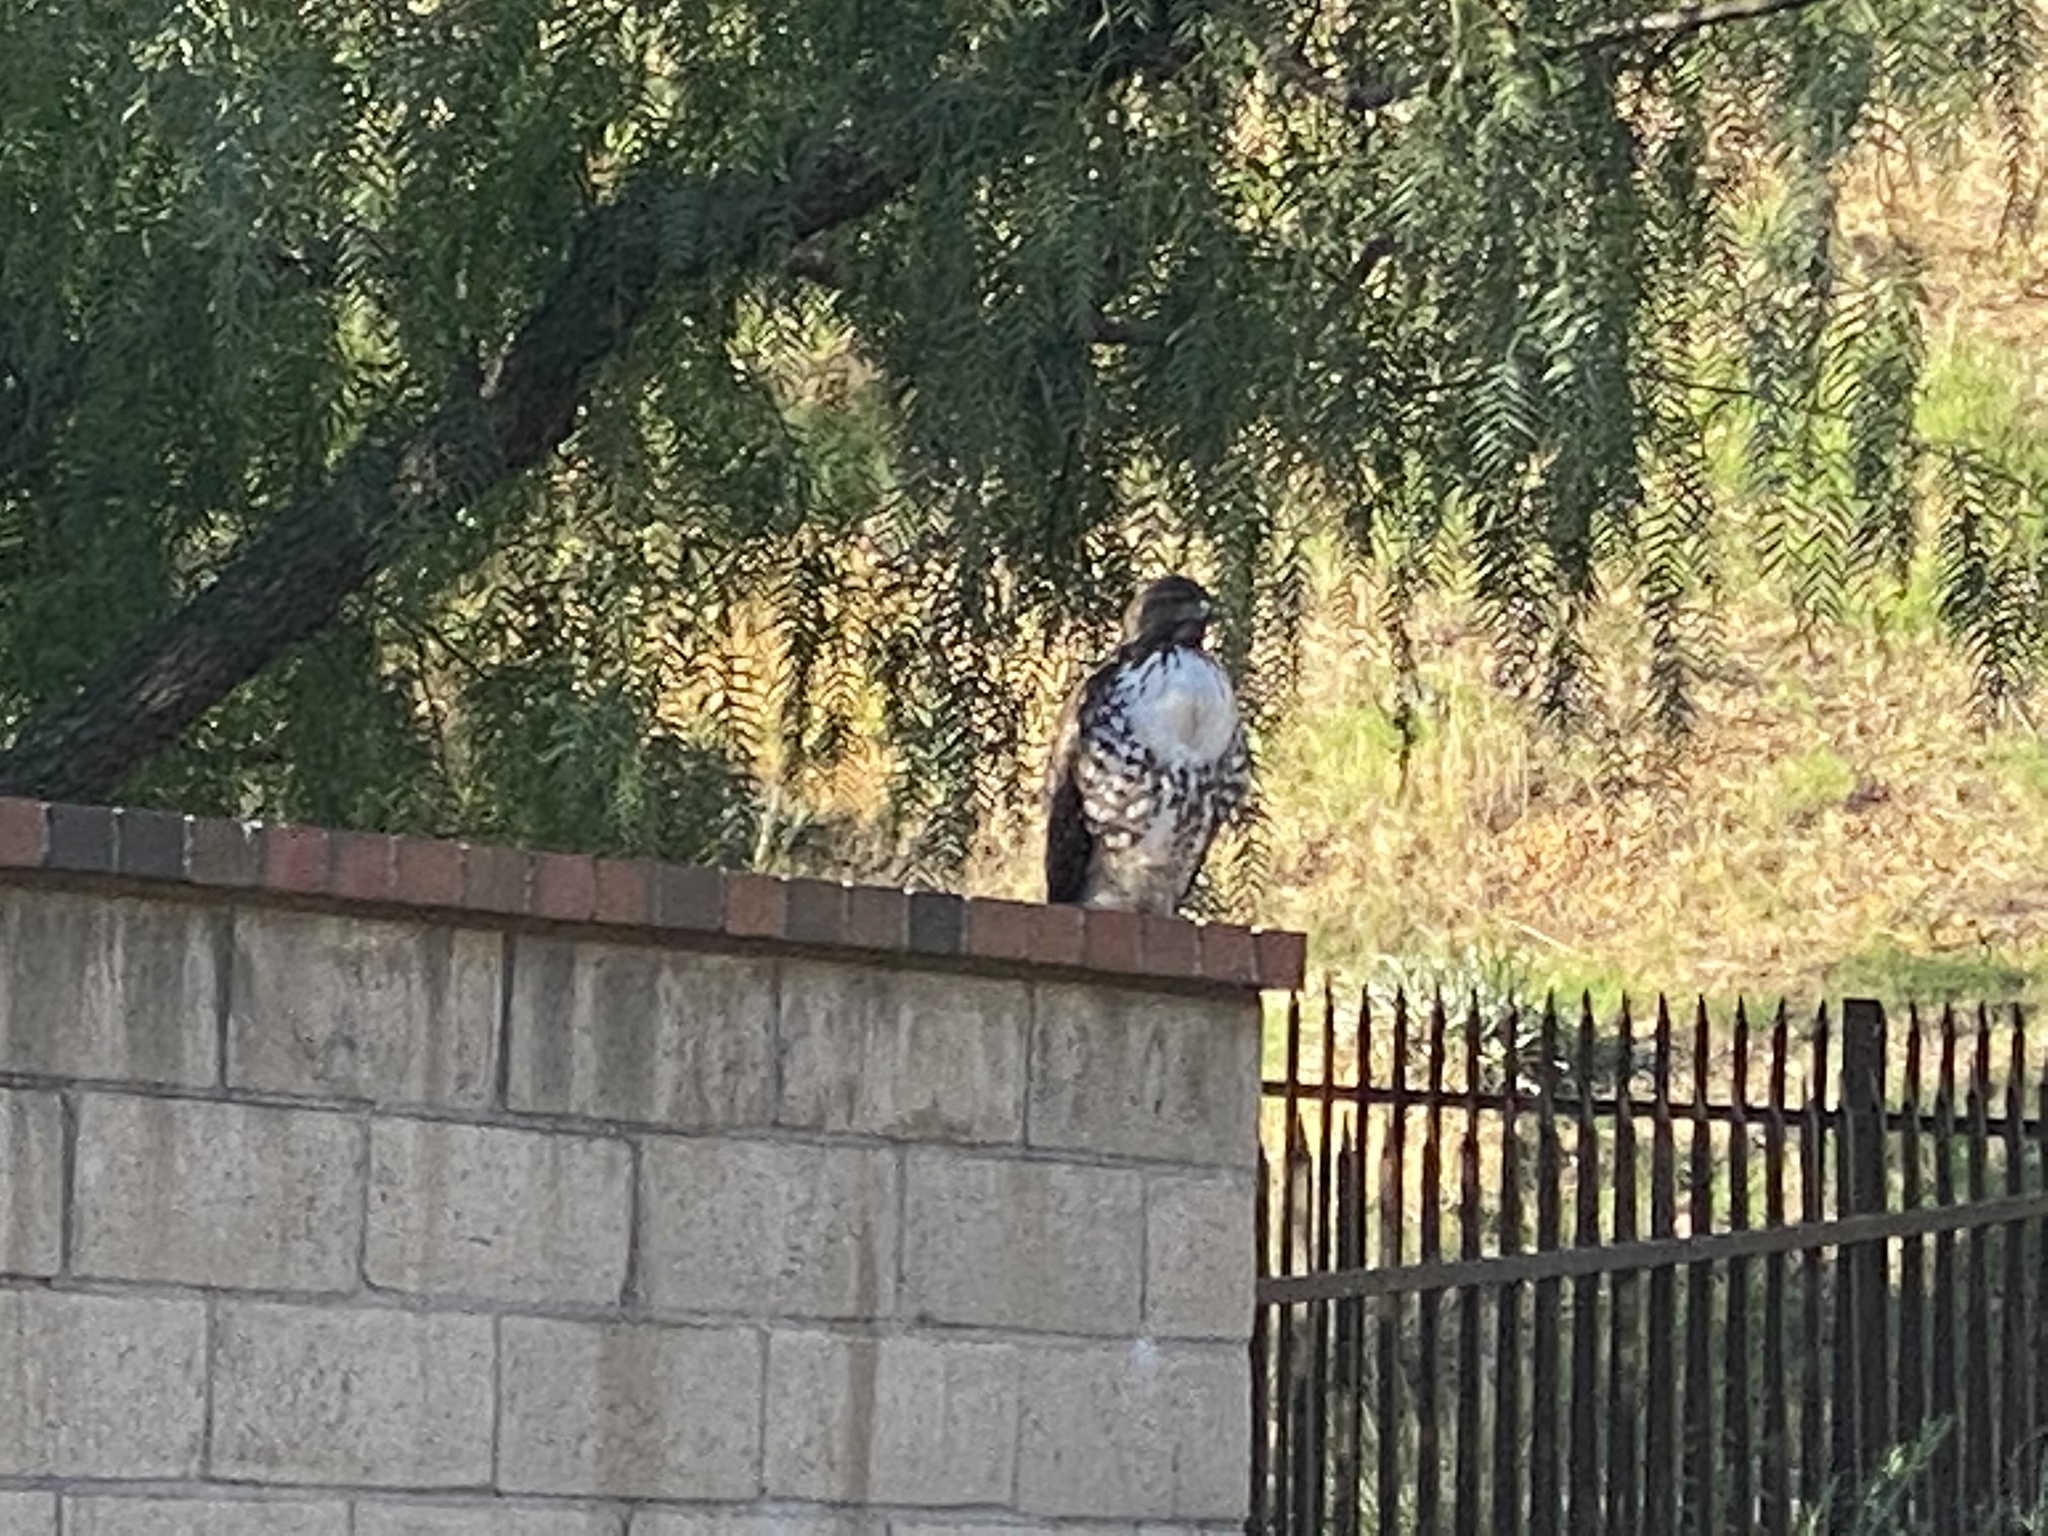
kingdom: Animalia
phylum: Chordata
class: Aves
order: Accipitriformes
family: Accipitridae
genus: Buteo
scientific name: Buteo jamaicensis
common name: Red-tailed hawk
